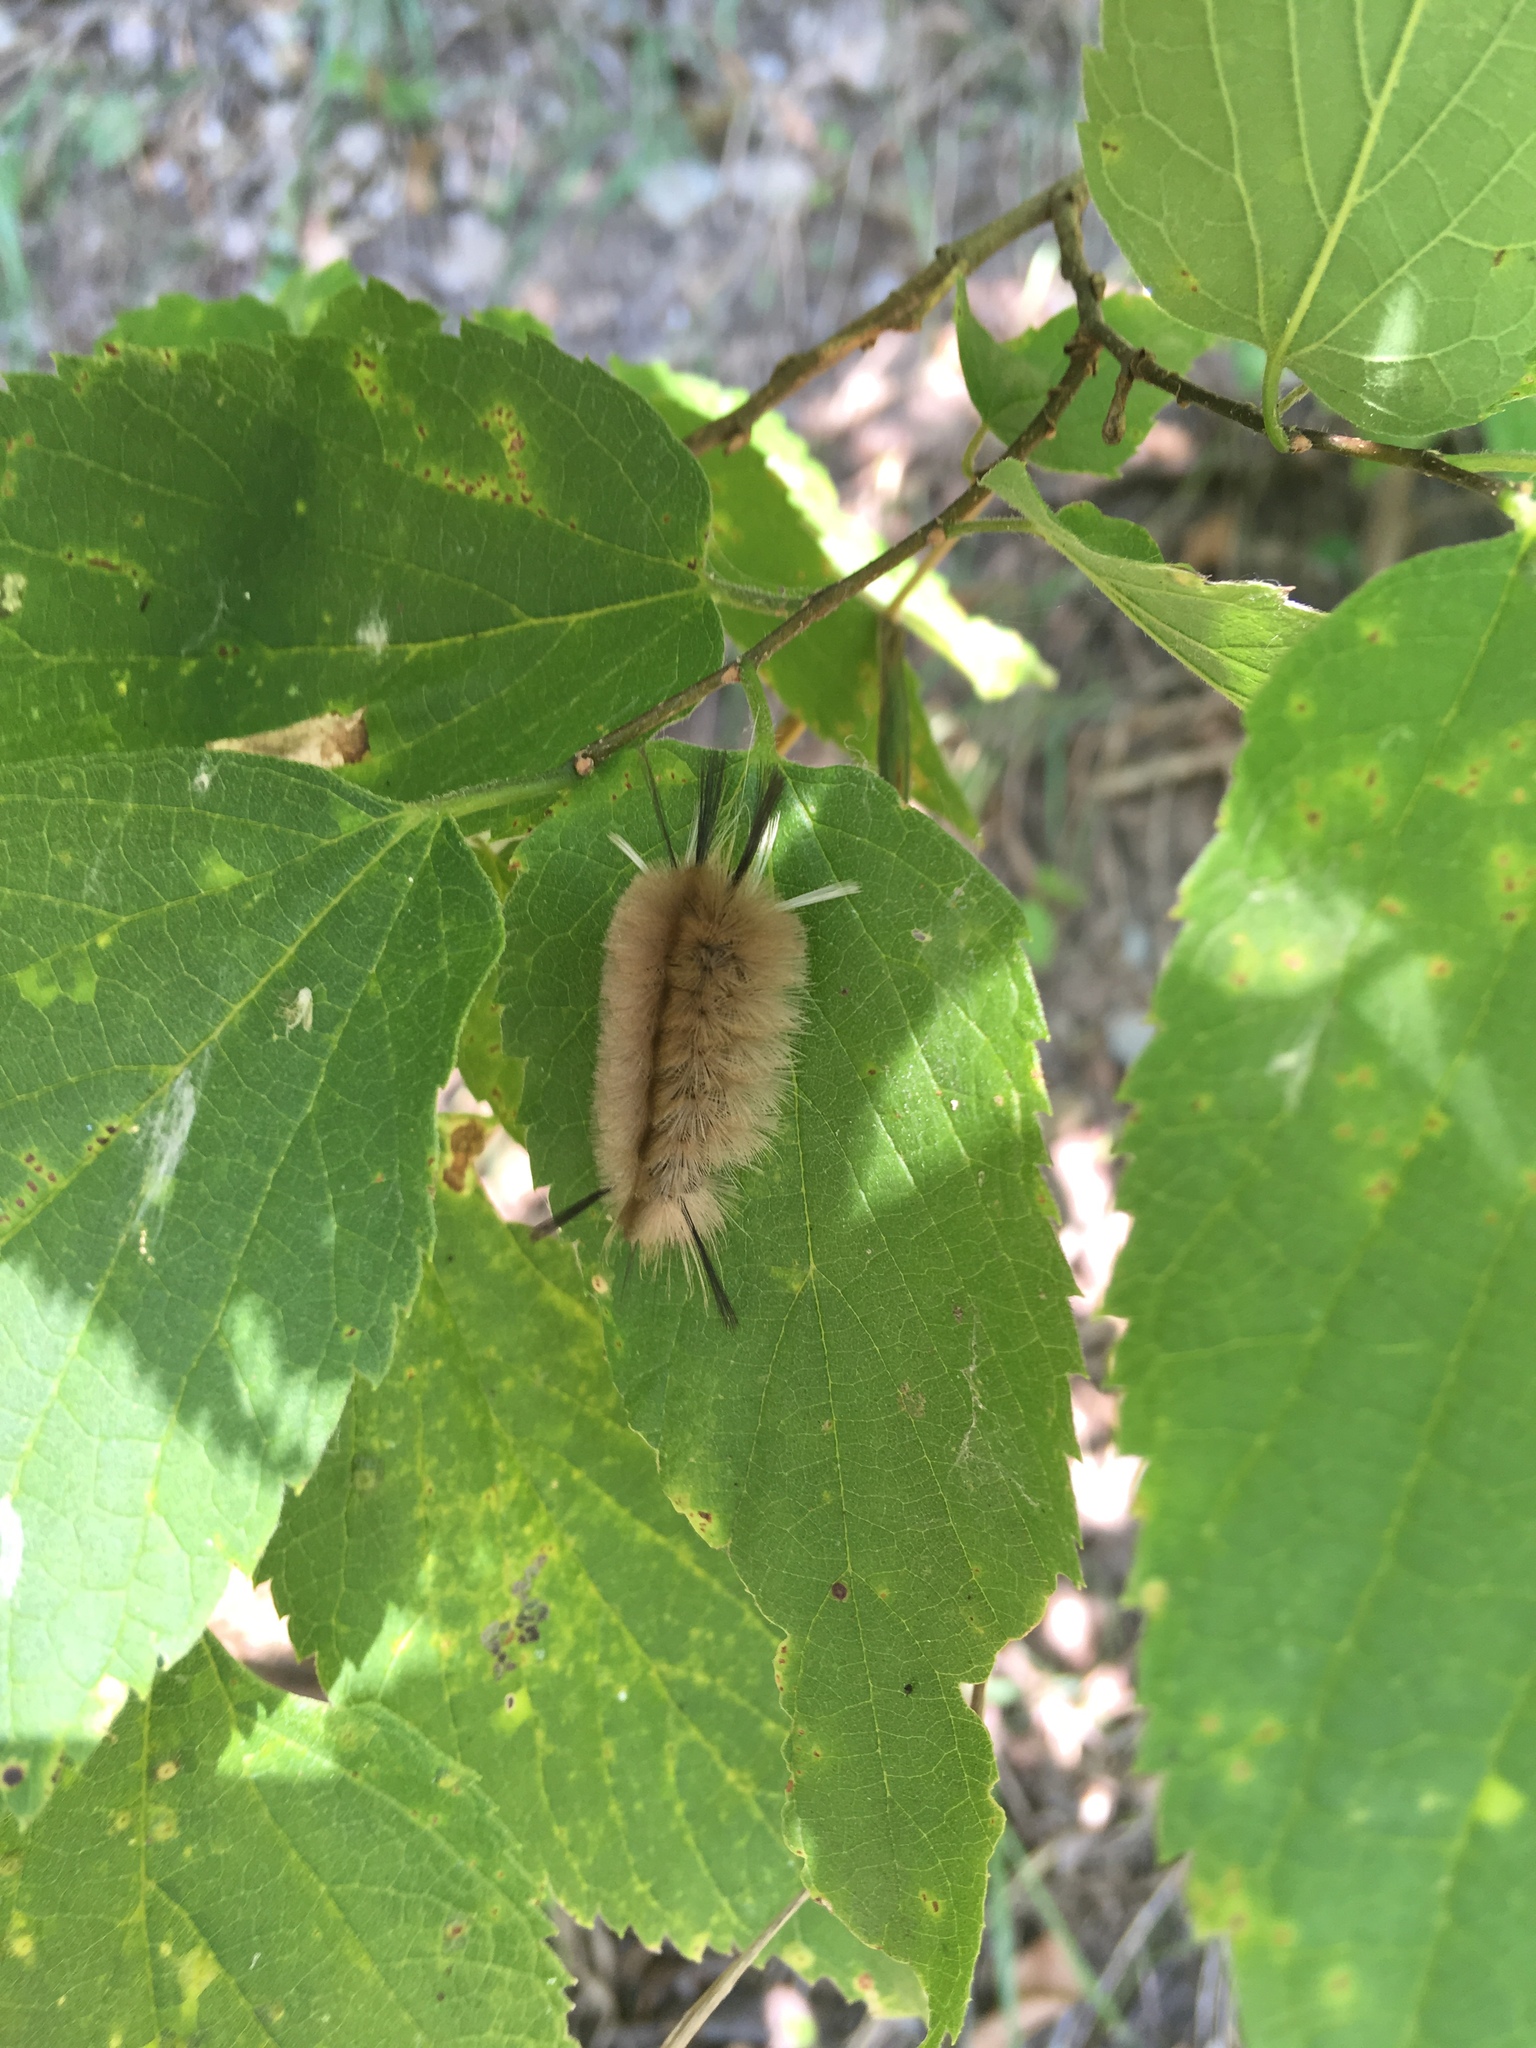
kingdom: Animalia
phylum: Arthropoda
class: Insecta
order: Lepidoptera
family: Erebidae
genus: Halysidota
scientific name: Halysidota tessellaris
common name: Banded tussock moth
